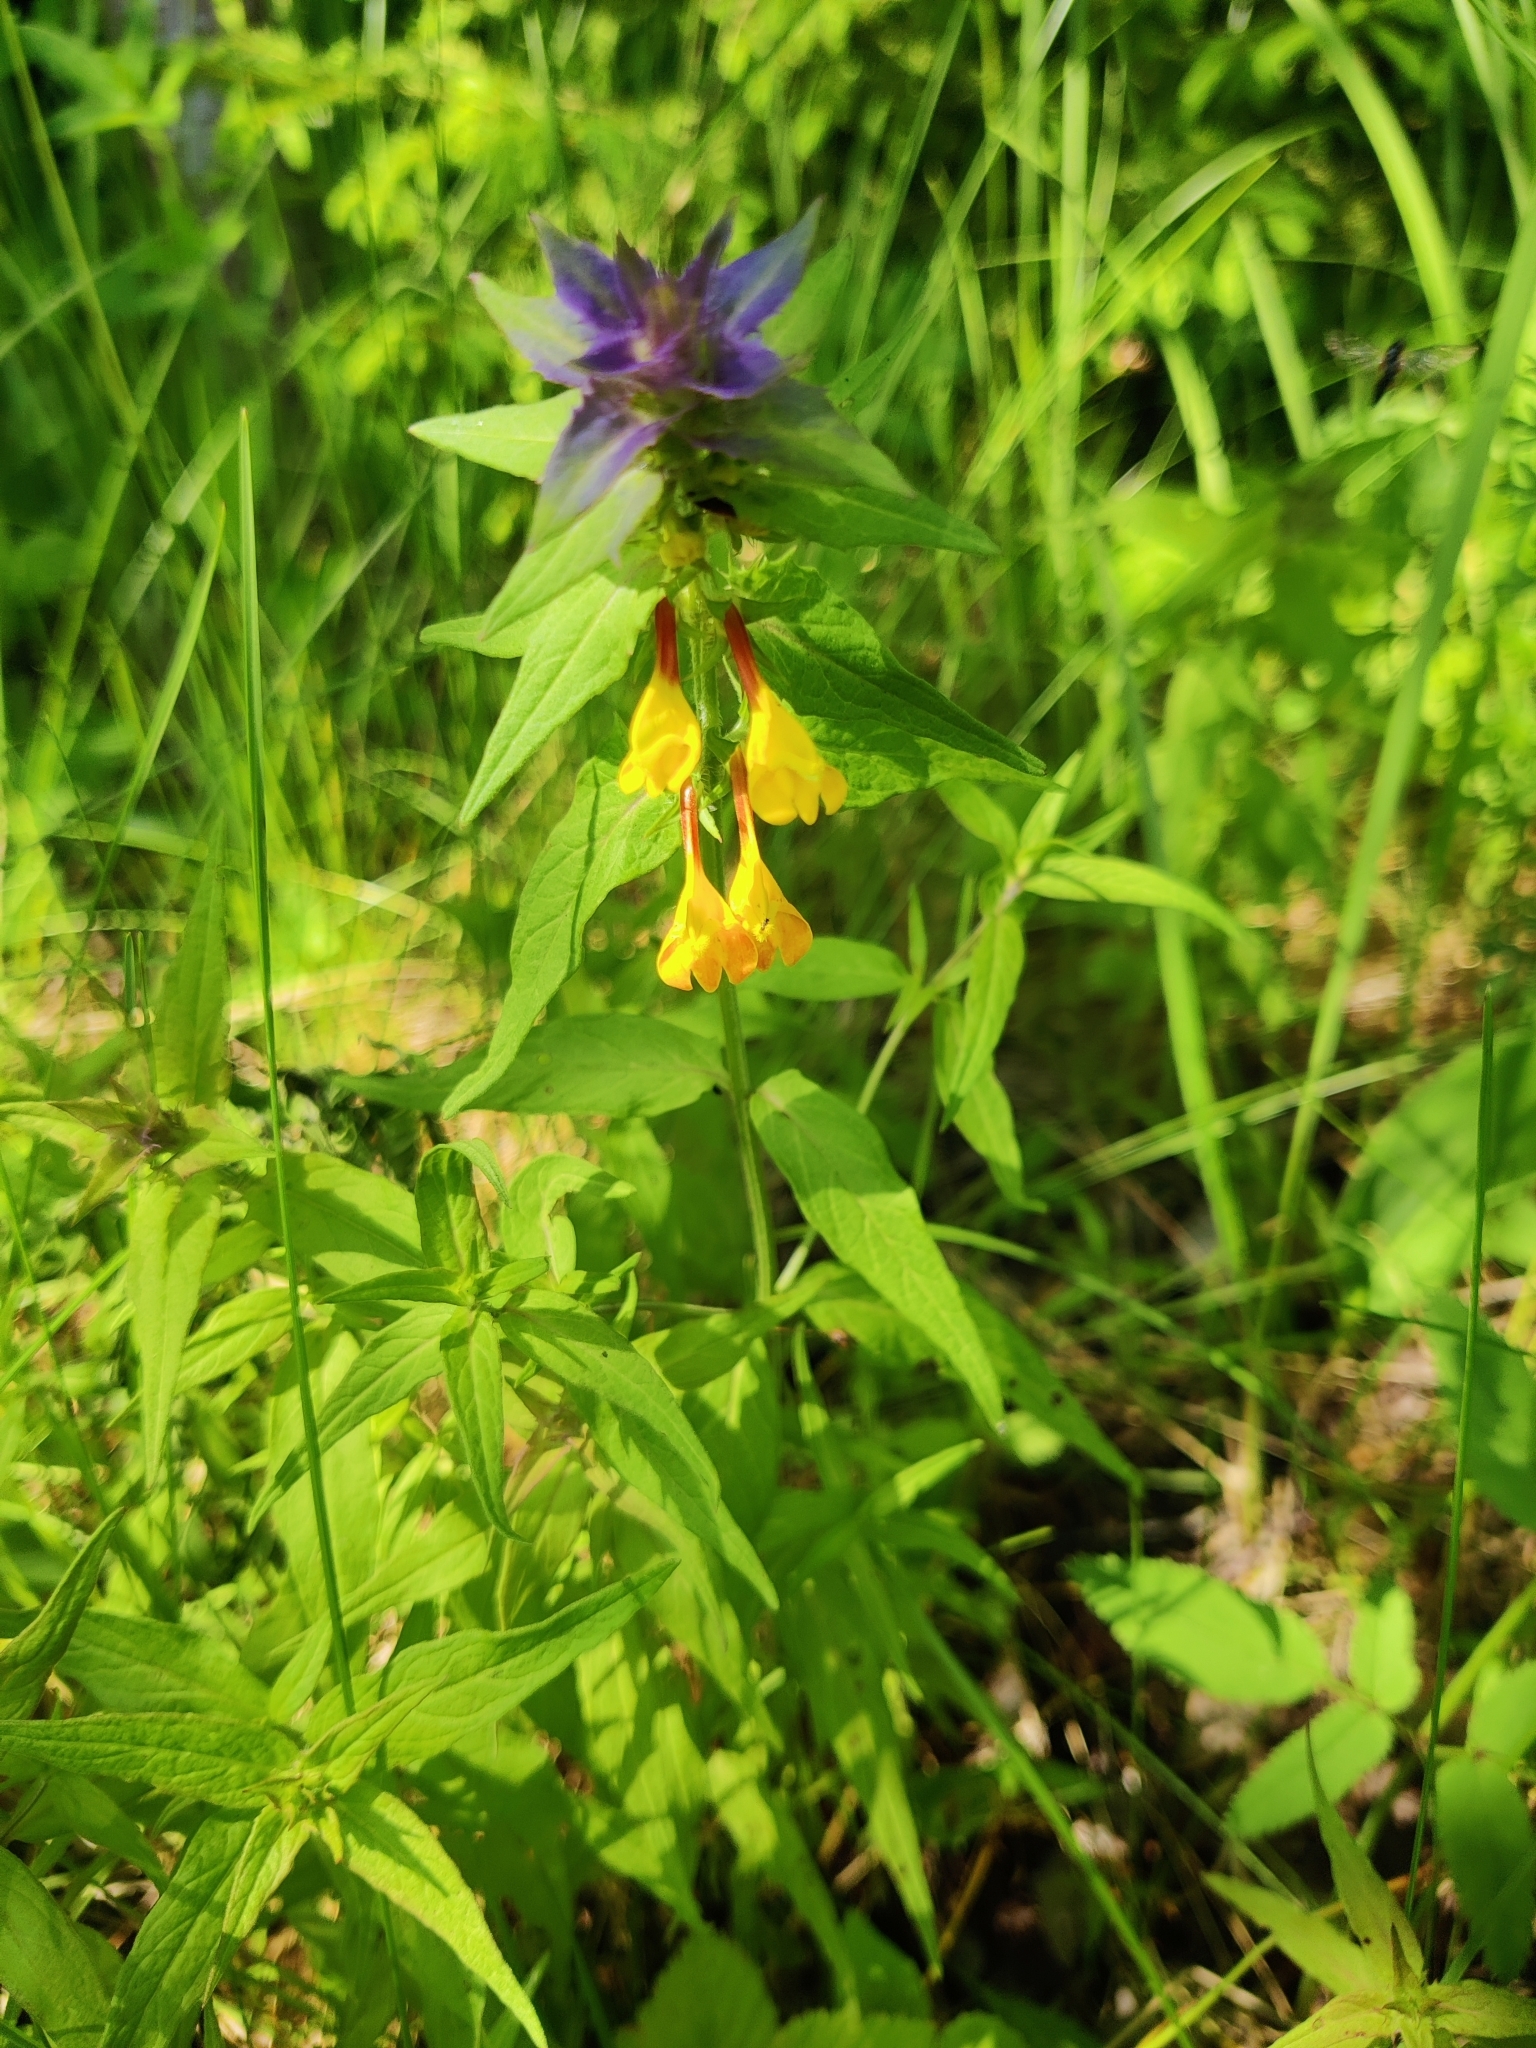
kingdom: Plantae
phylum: Tracheophyta
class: Magnoliopsida
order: Lamiales
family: Orobanchaceae
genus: Melampyrum
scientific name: Melampyrum nemorosum
